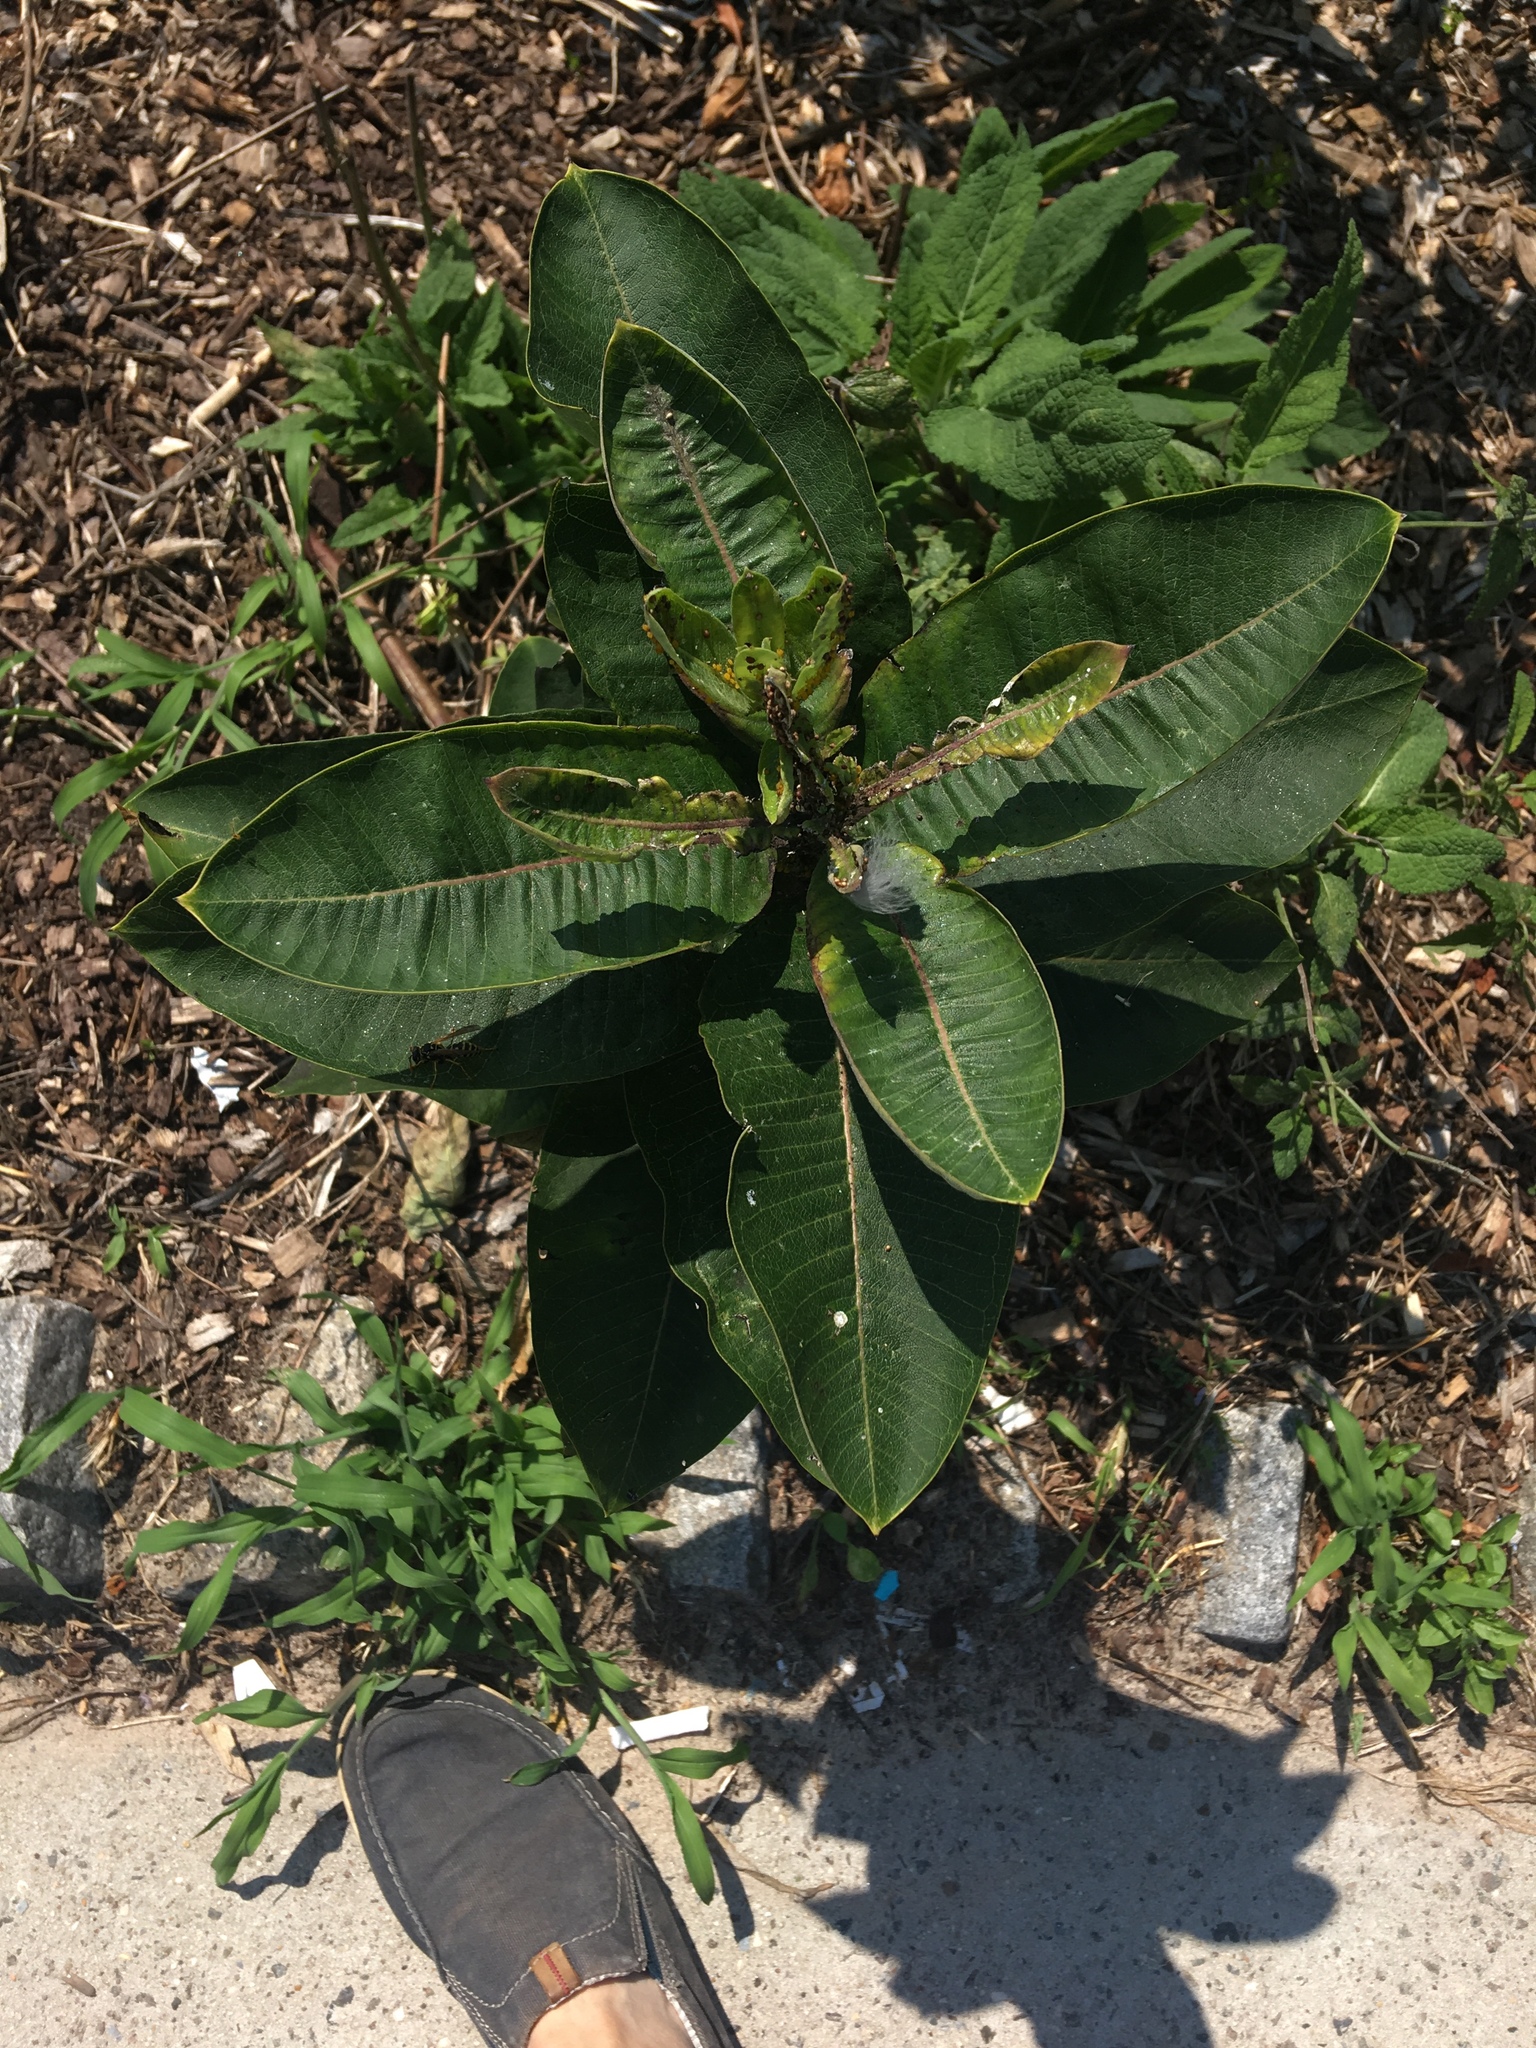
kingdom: Plantae
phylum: Tracheophyta
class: Magnoliopsida
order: Gentianales
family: Apocynaceae
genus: Asclepias
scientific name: Asclepias syriaca
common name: Common milkweed
